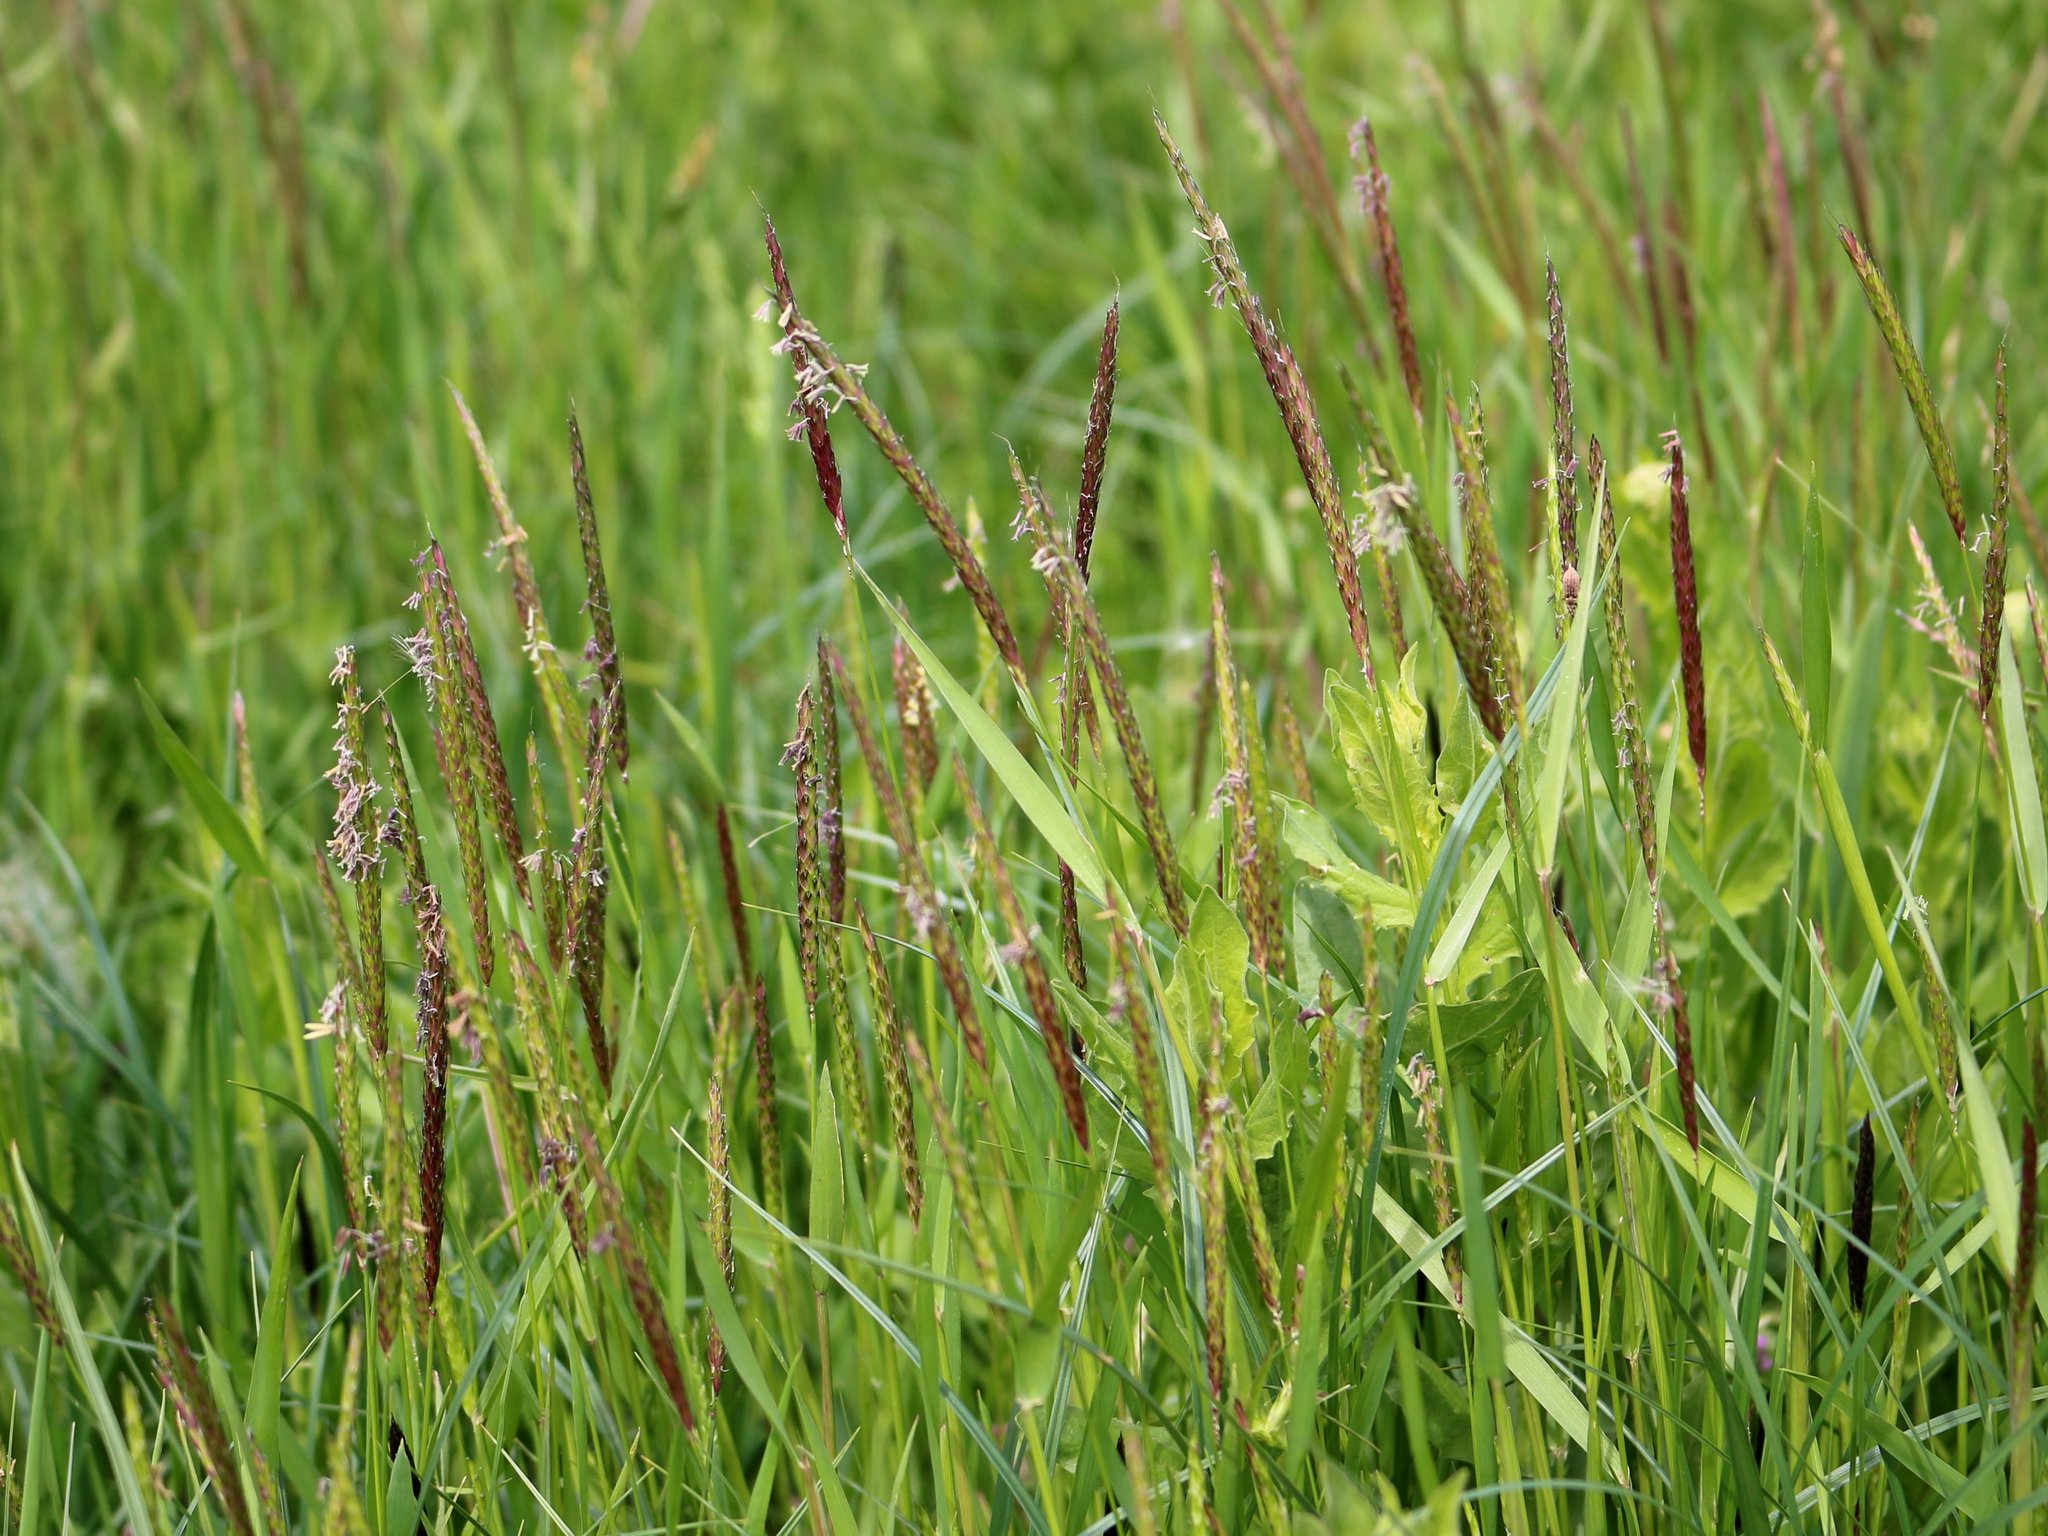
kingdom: Plantae
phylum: Tracheophyta
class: Liliopsida
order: Poales
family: Poaceae
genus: Alopecurus
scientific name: Alopecurus myosuroides
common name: Black-grass
